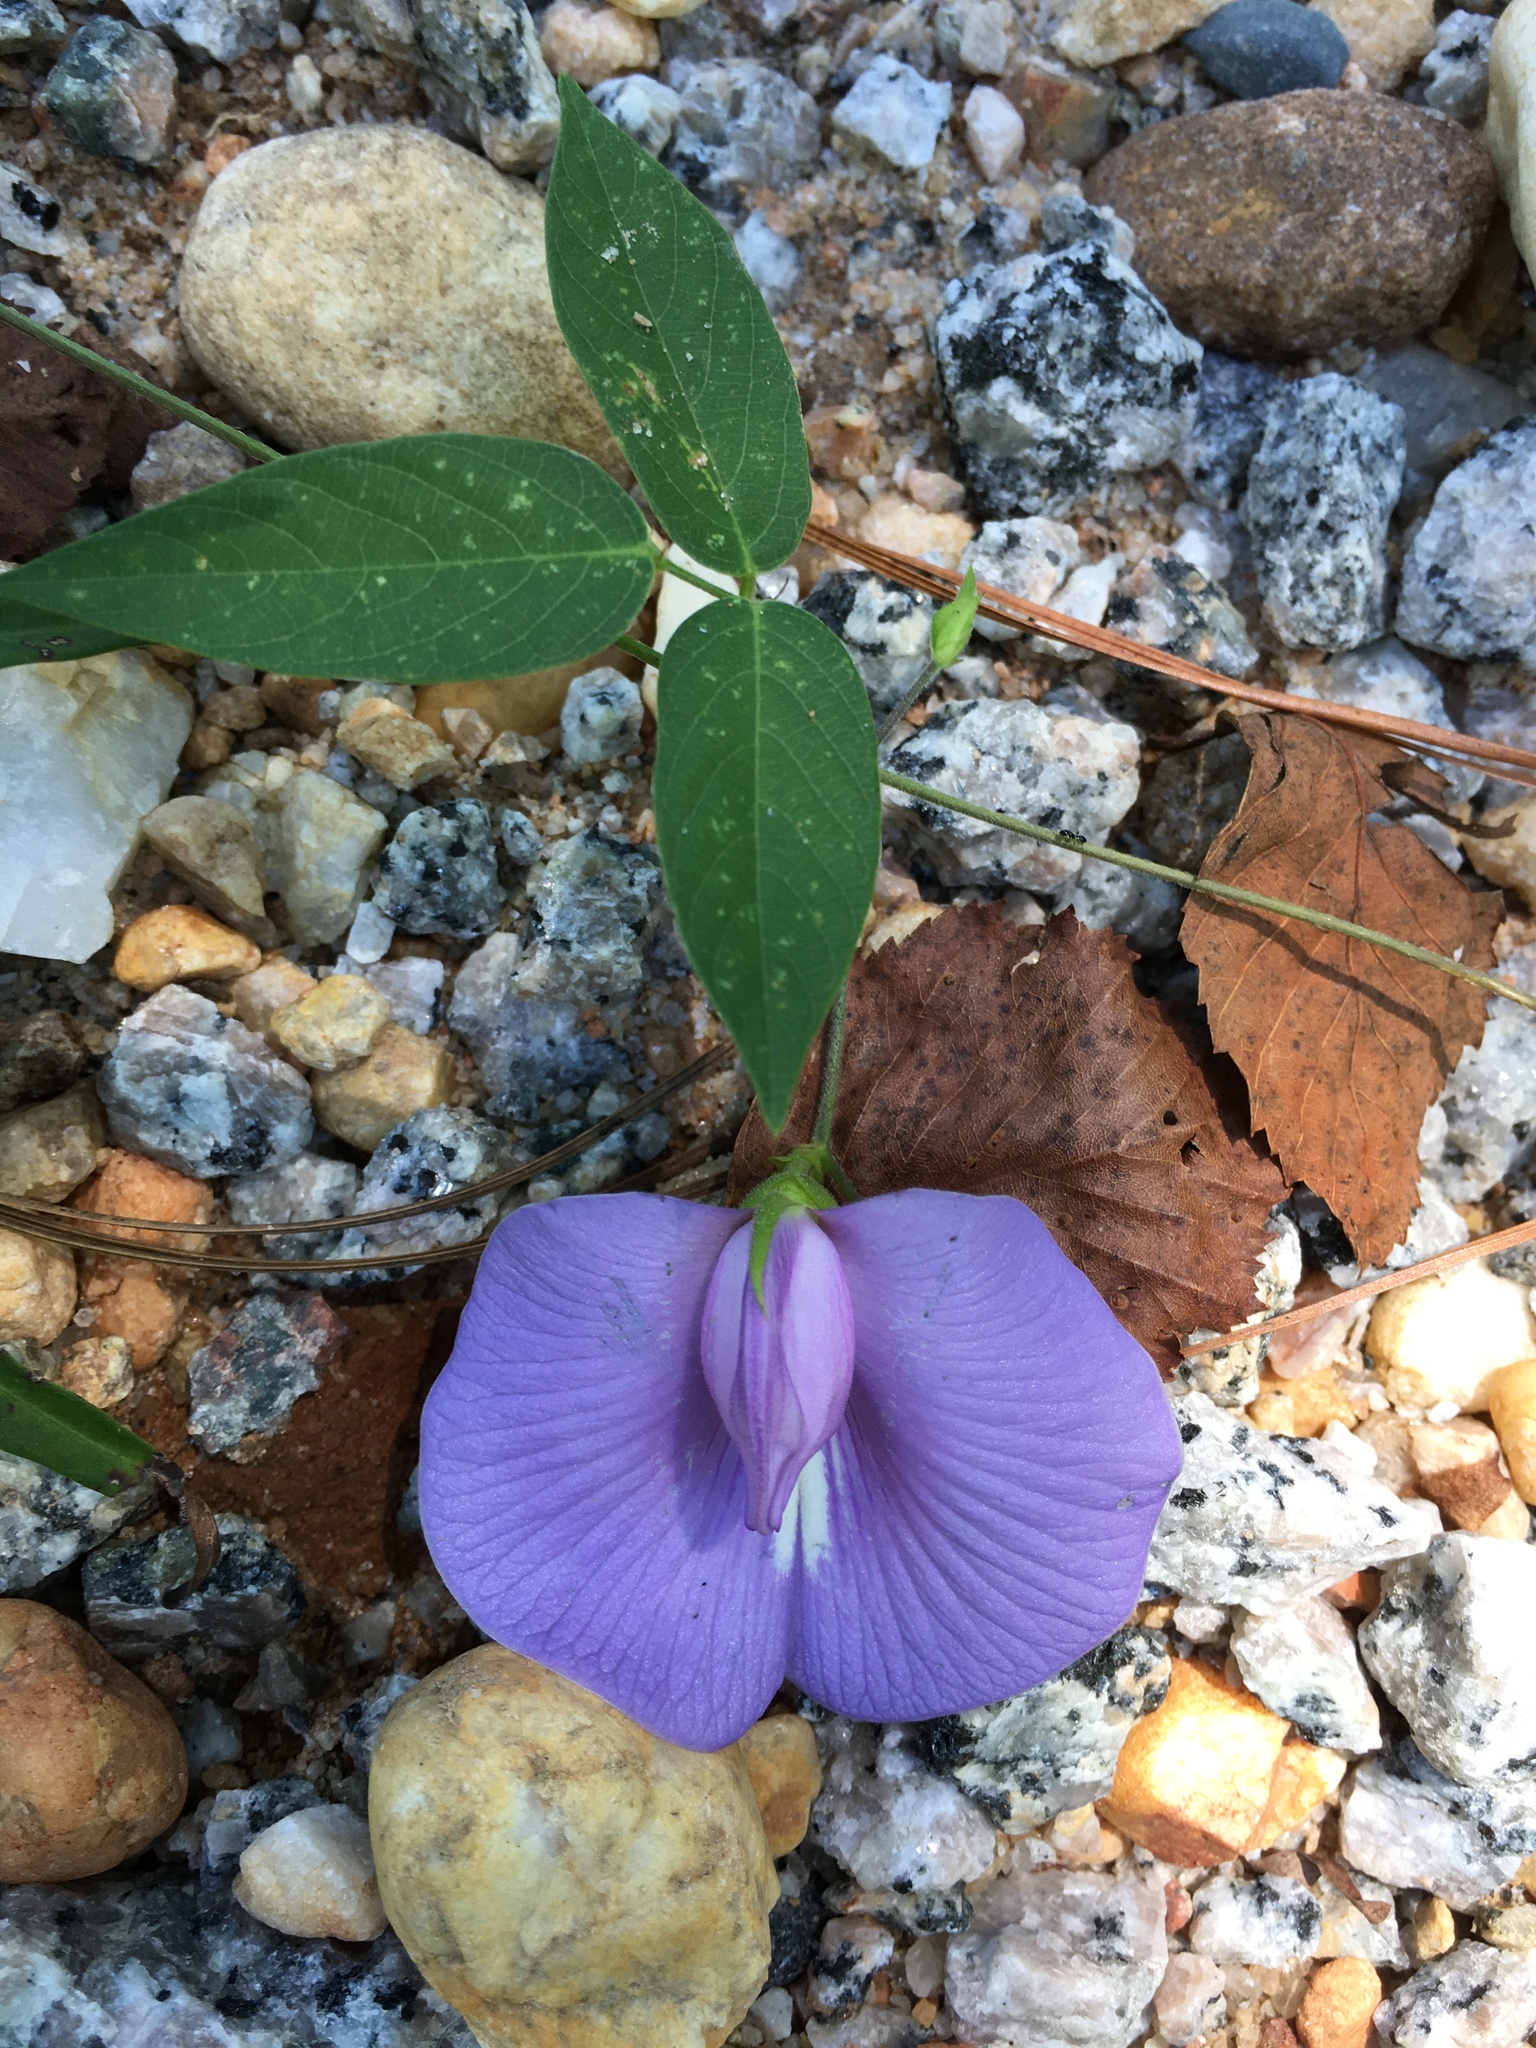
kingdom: Plantae
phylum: Tracheophyta
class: Magnoliopsida
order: Fabales
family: Fabaceae
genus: Centrosema
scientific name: Centrosema virginianum
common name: Butterfly-pea
